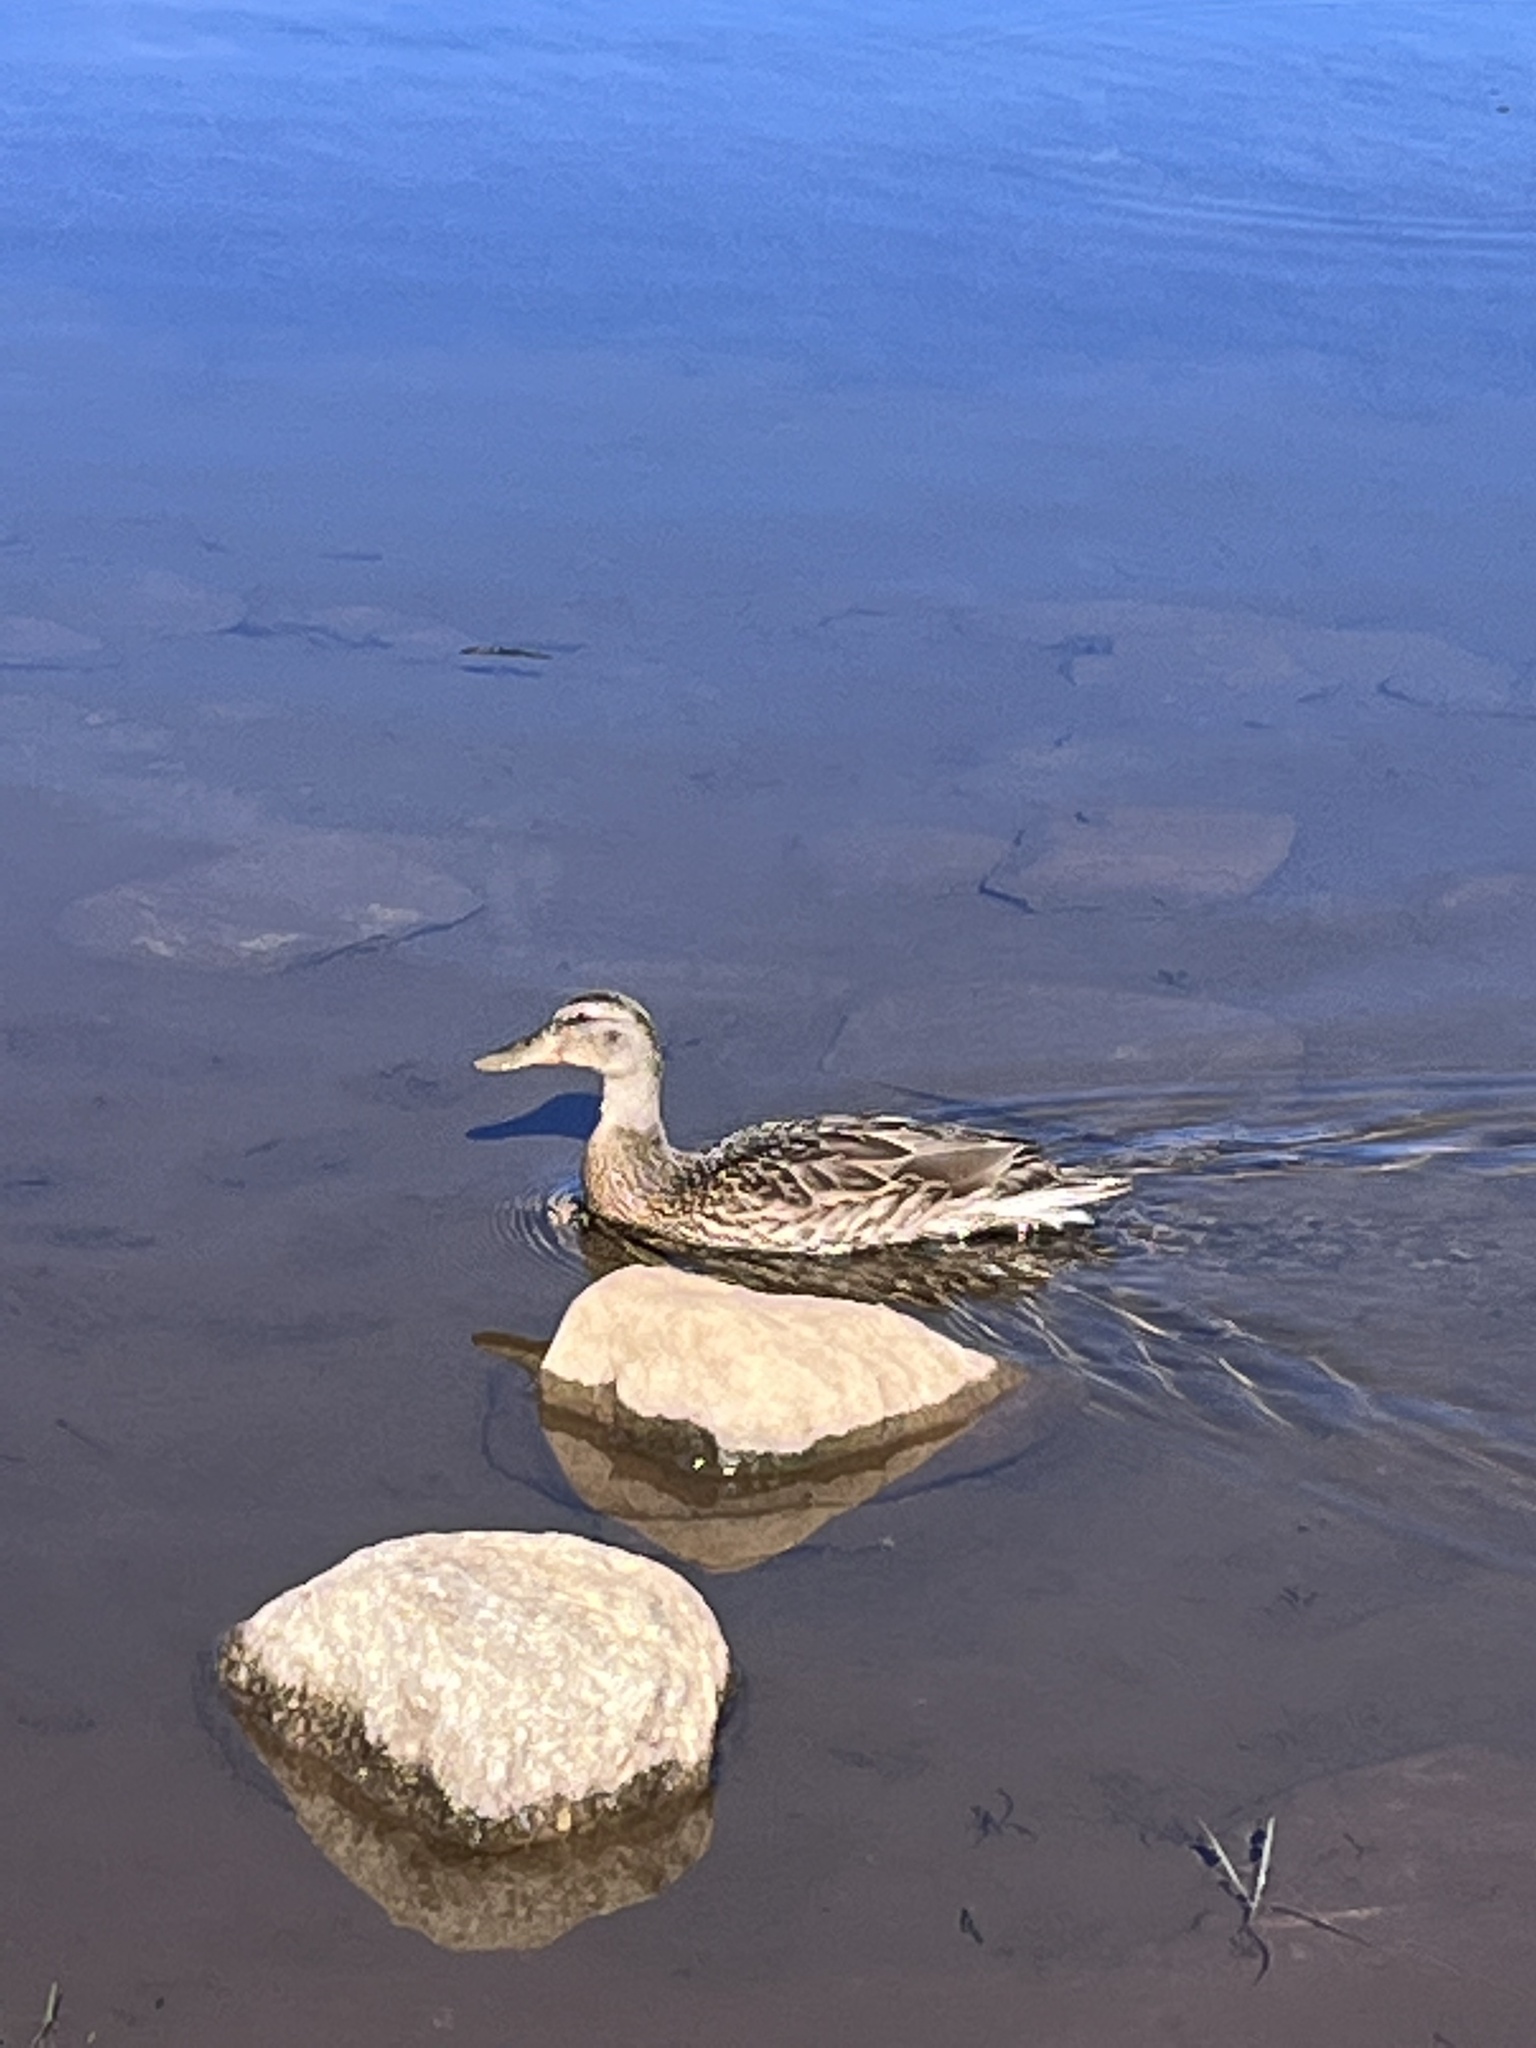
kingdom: Animalia
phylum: Chordata
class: Aves
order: Anseriformes
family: Anatidae
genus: Anas
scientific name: Anas platyrhynchos
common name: Mallard
